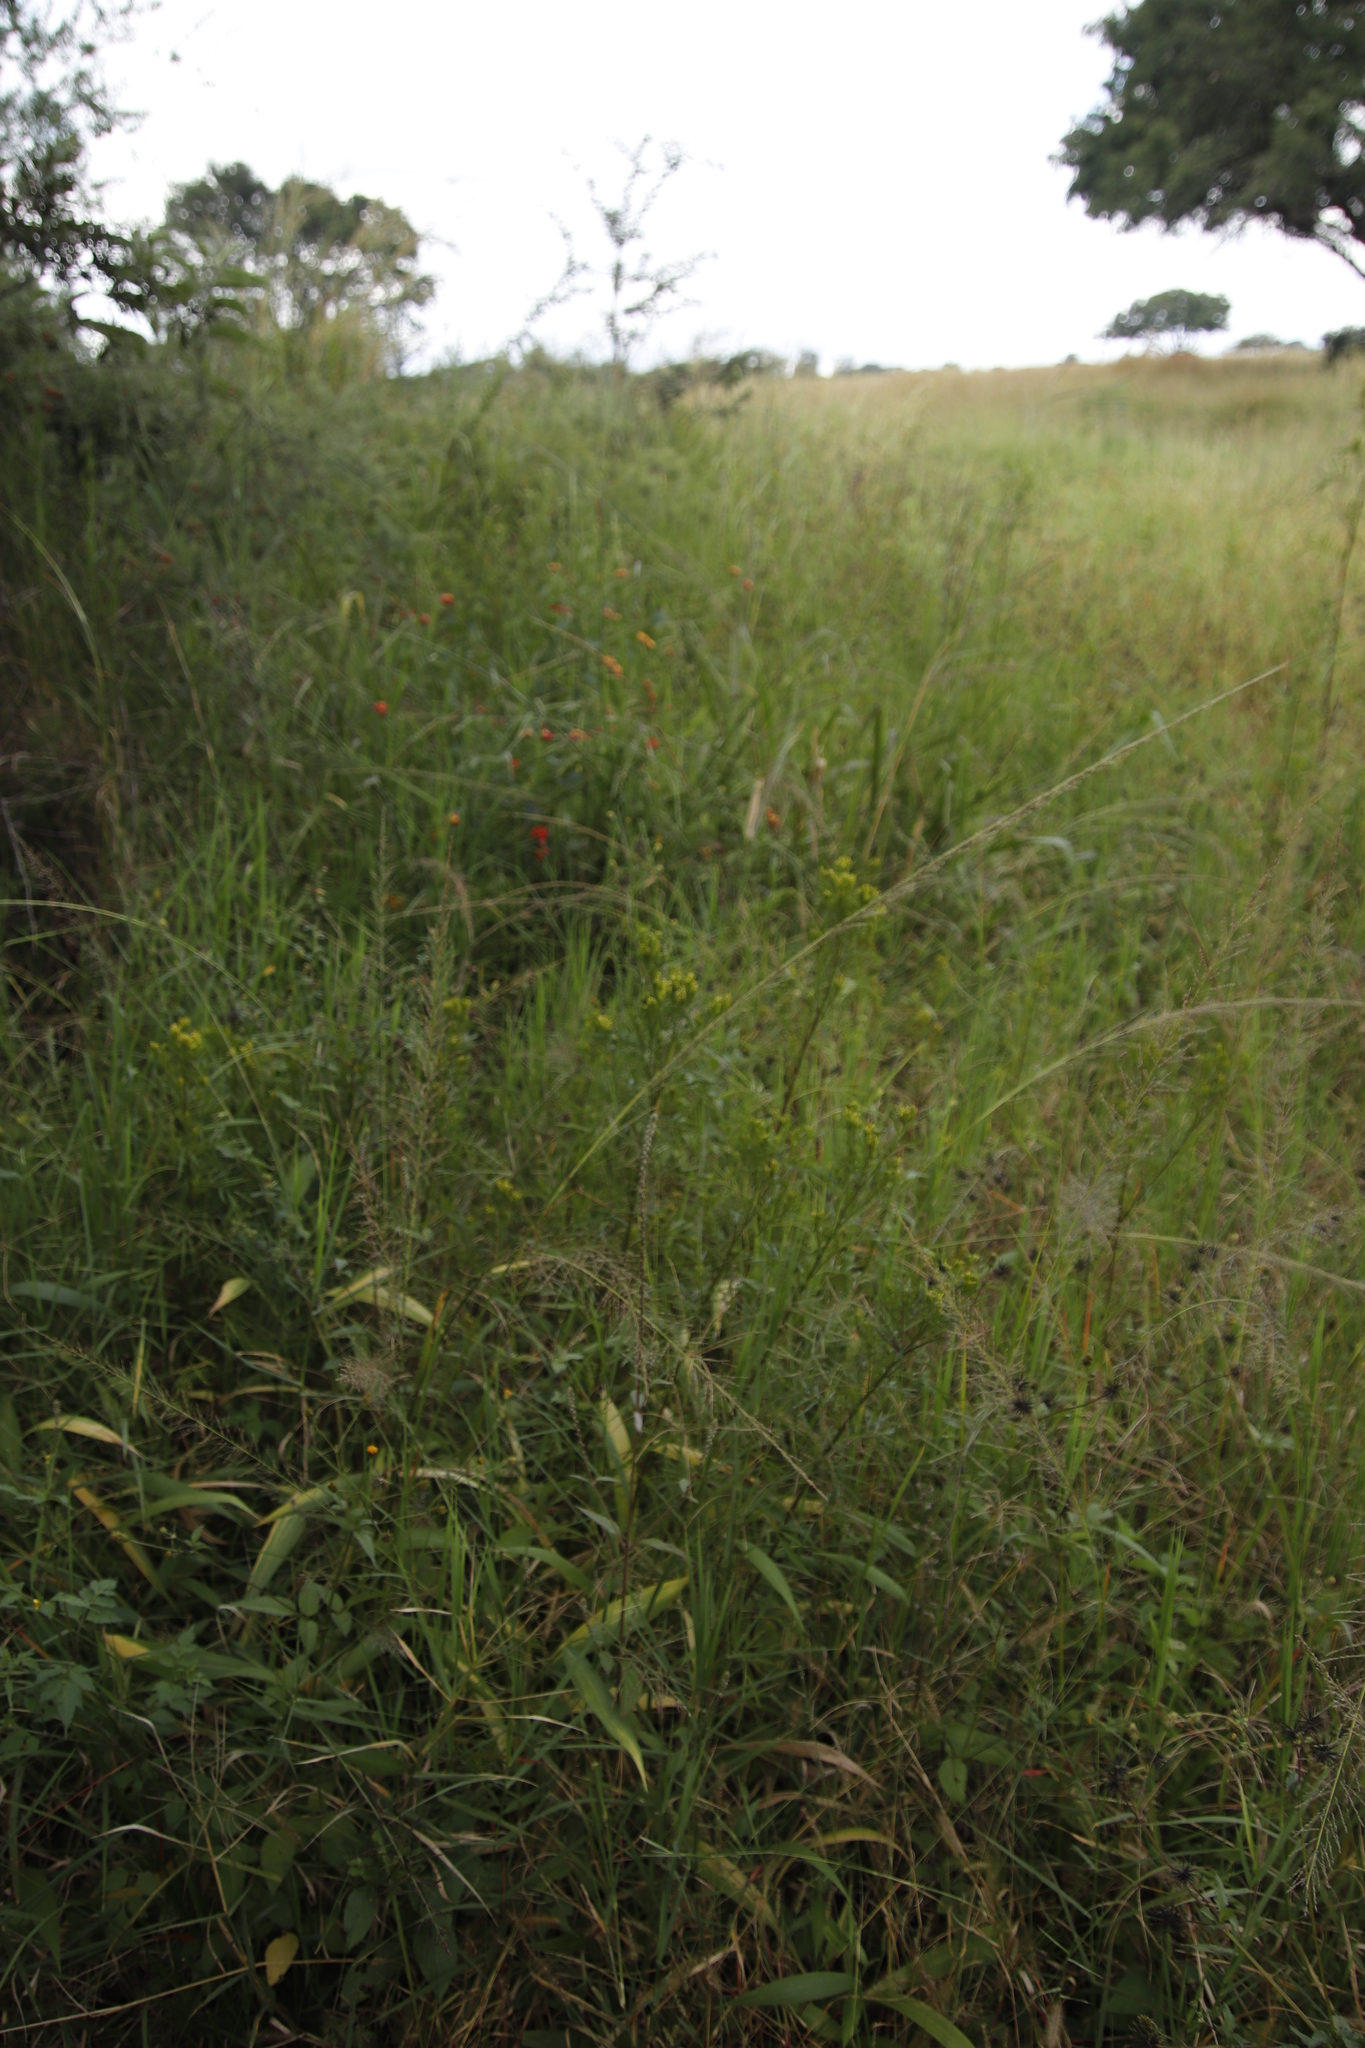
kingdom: Plantae
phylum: Tracheophyta
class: Magnoliopsida
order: Asterales
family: Asteraceae
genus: Tagetes
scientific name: Tagetes minuta
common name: Muster john henry
